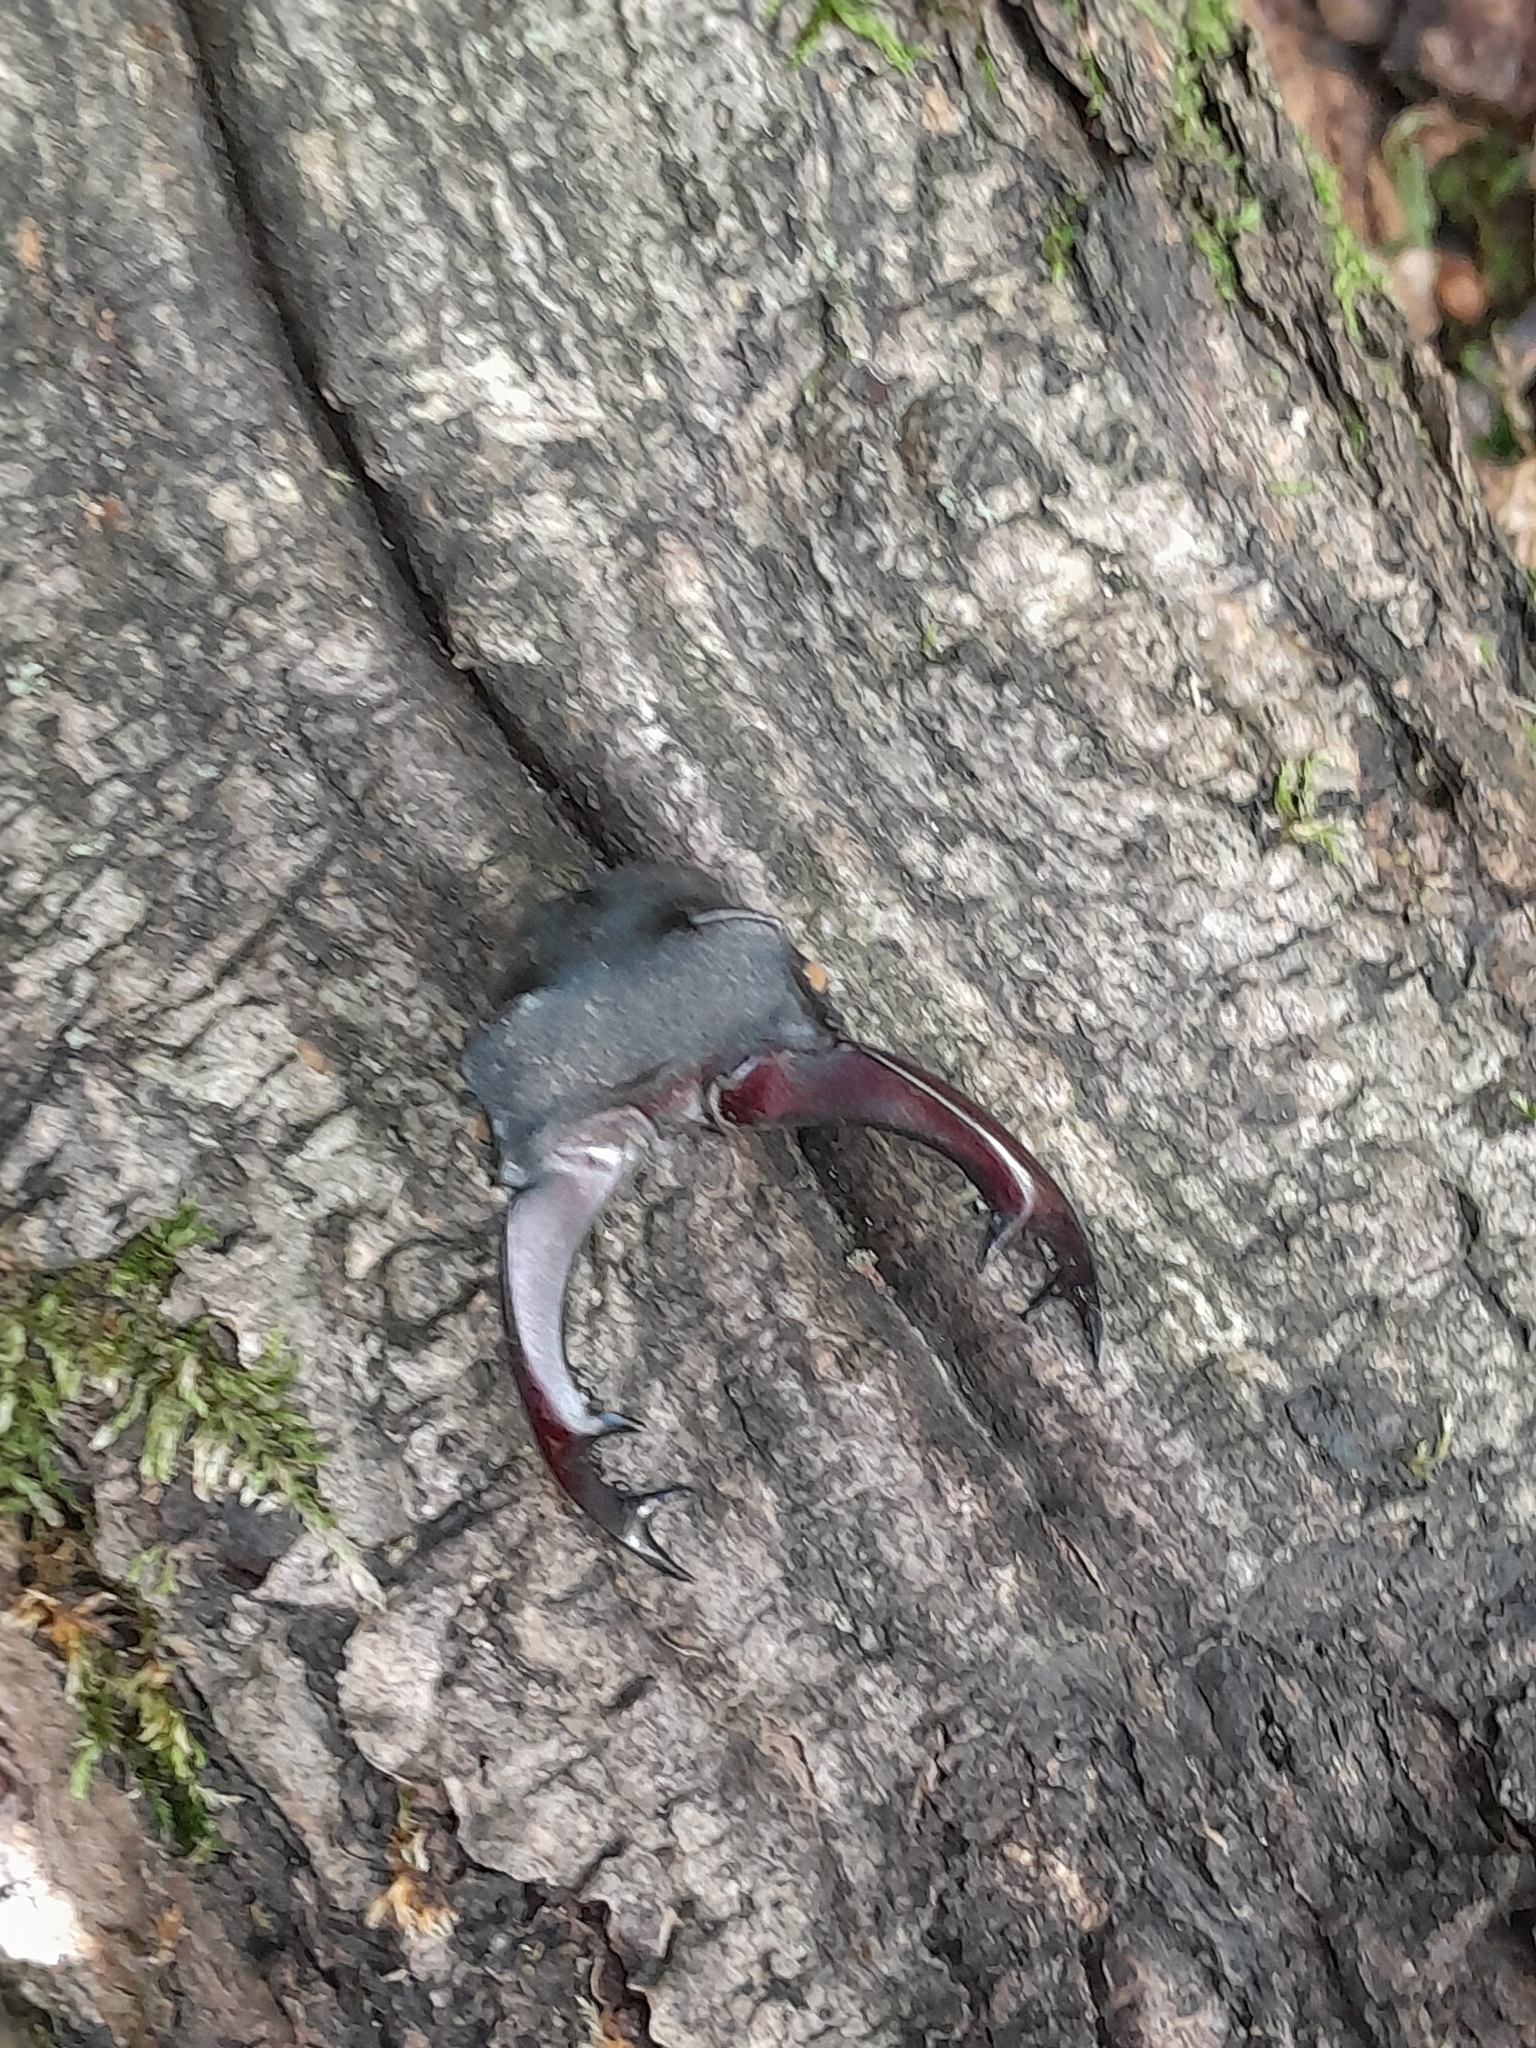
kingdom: Animalia
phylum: Arthropoda
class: Insecta
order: Coleoptera
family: Lucanidae
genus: Lucanus
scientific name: Lucanus cervus
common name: Stag beetle
